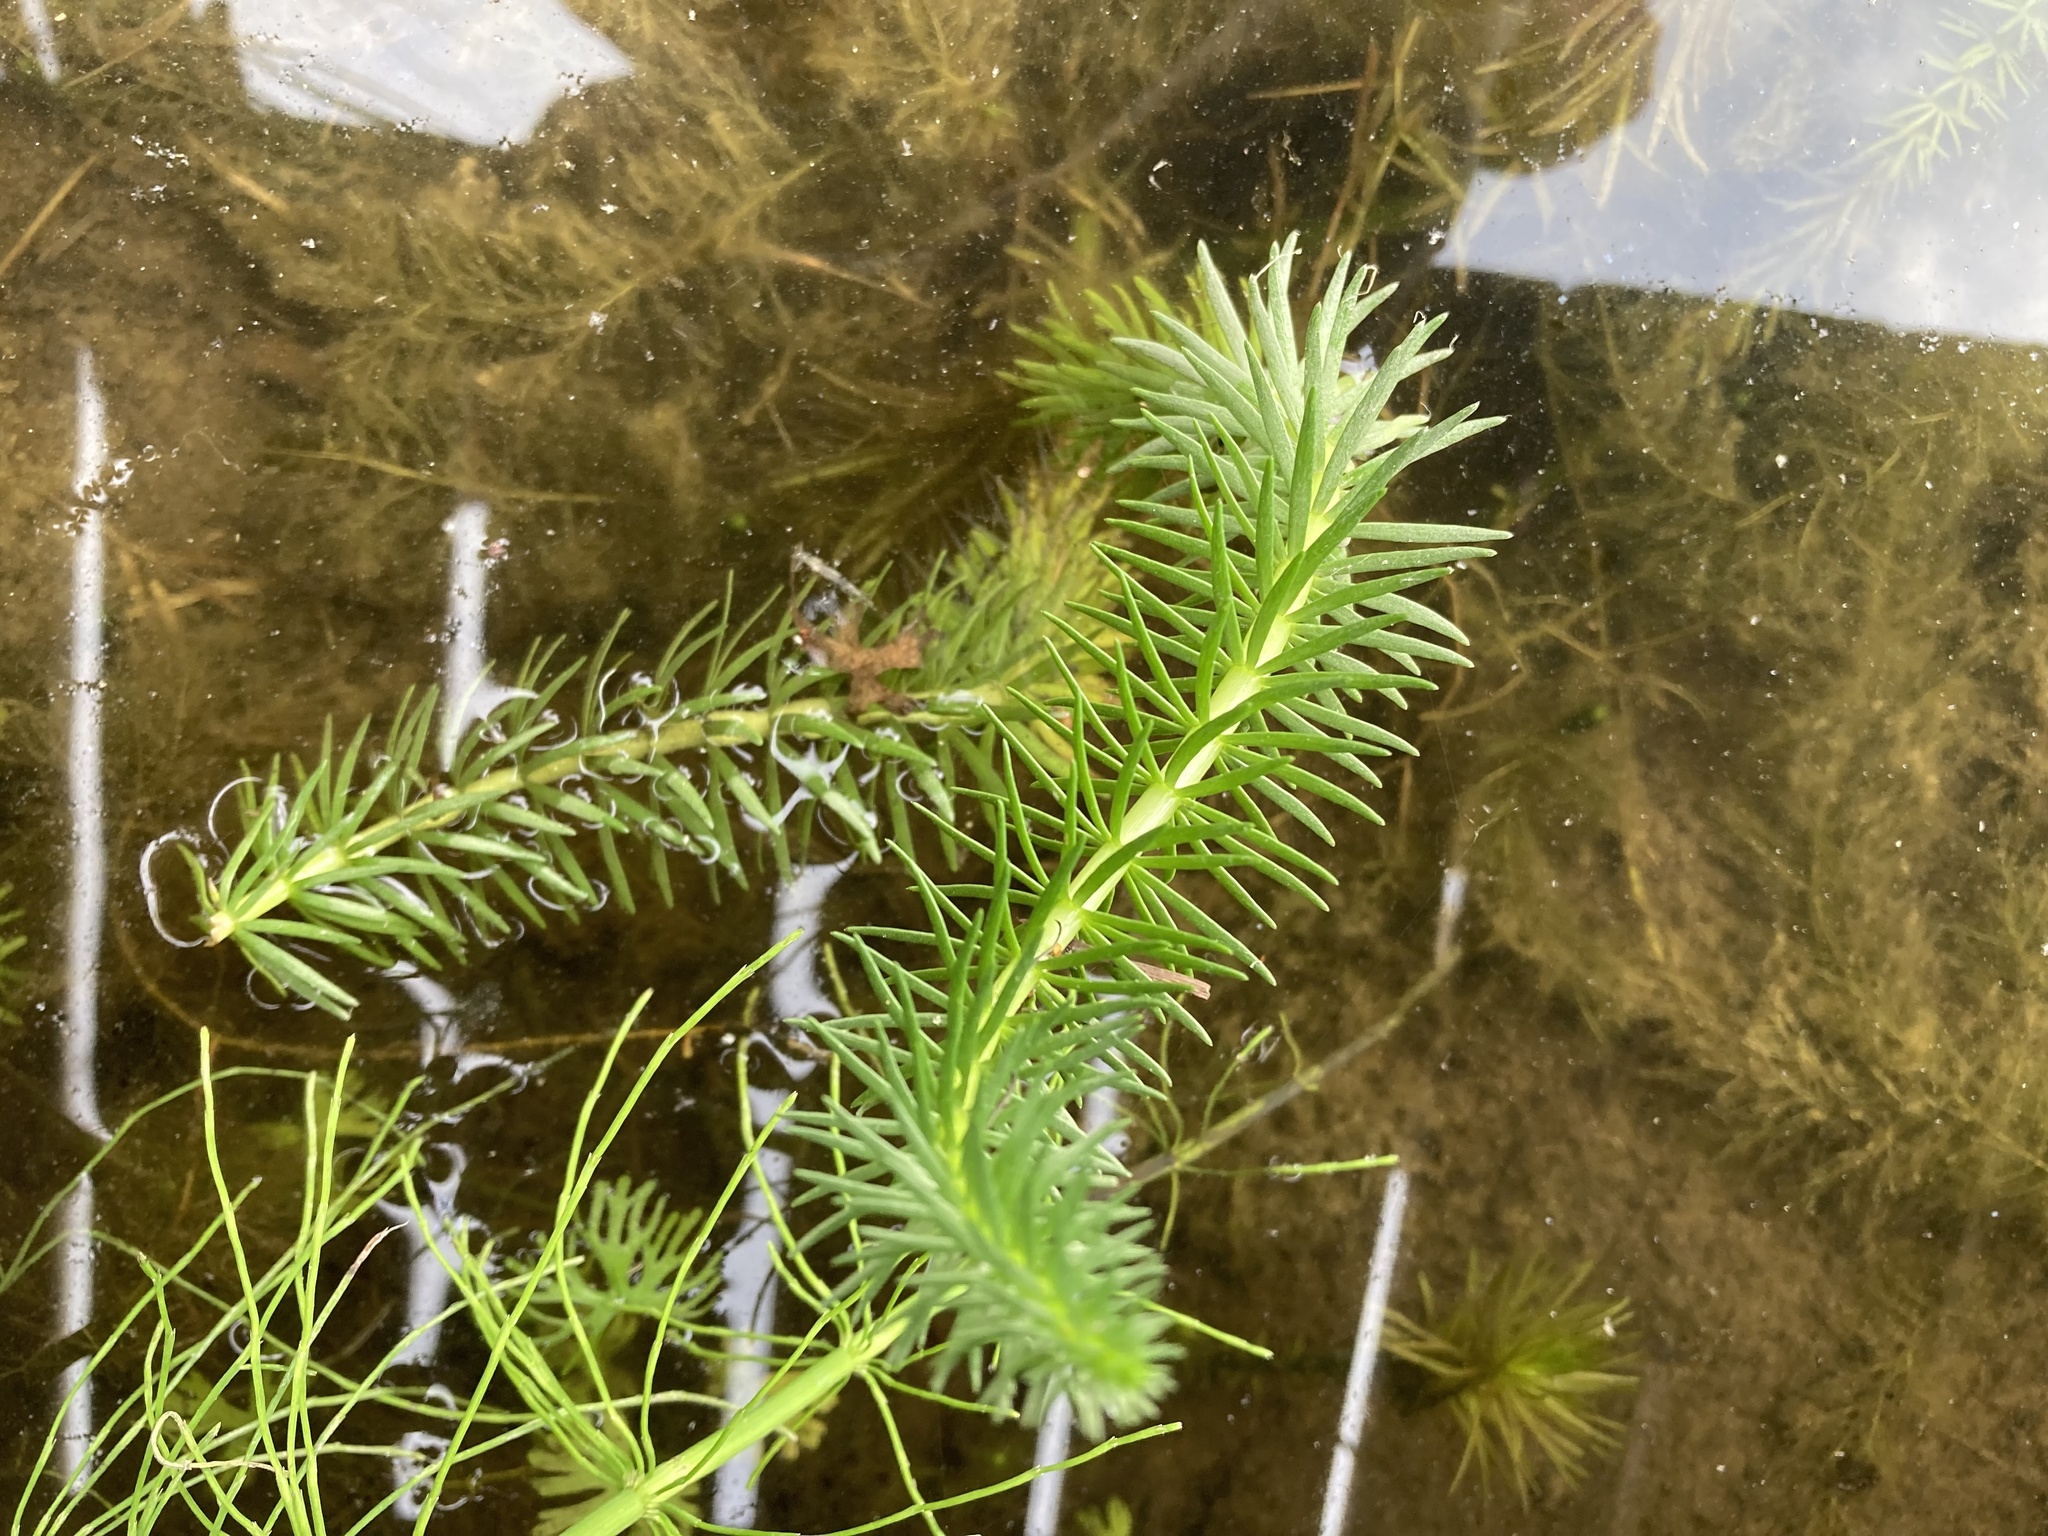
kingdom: Plantae
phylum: Tracheophyta
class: Magnoliopsida
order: Lamiales
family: Plantaginaceae
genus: Hippuris
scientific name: Hippuris vulgaris
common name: Mare's-tail
